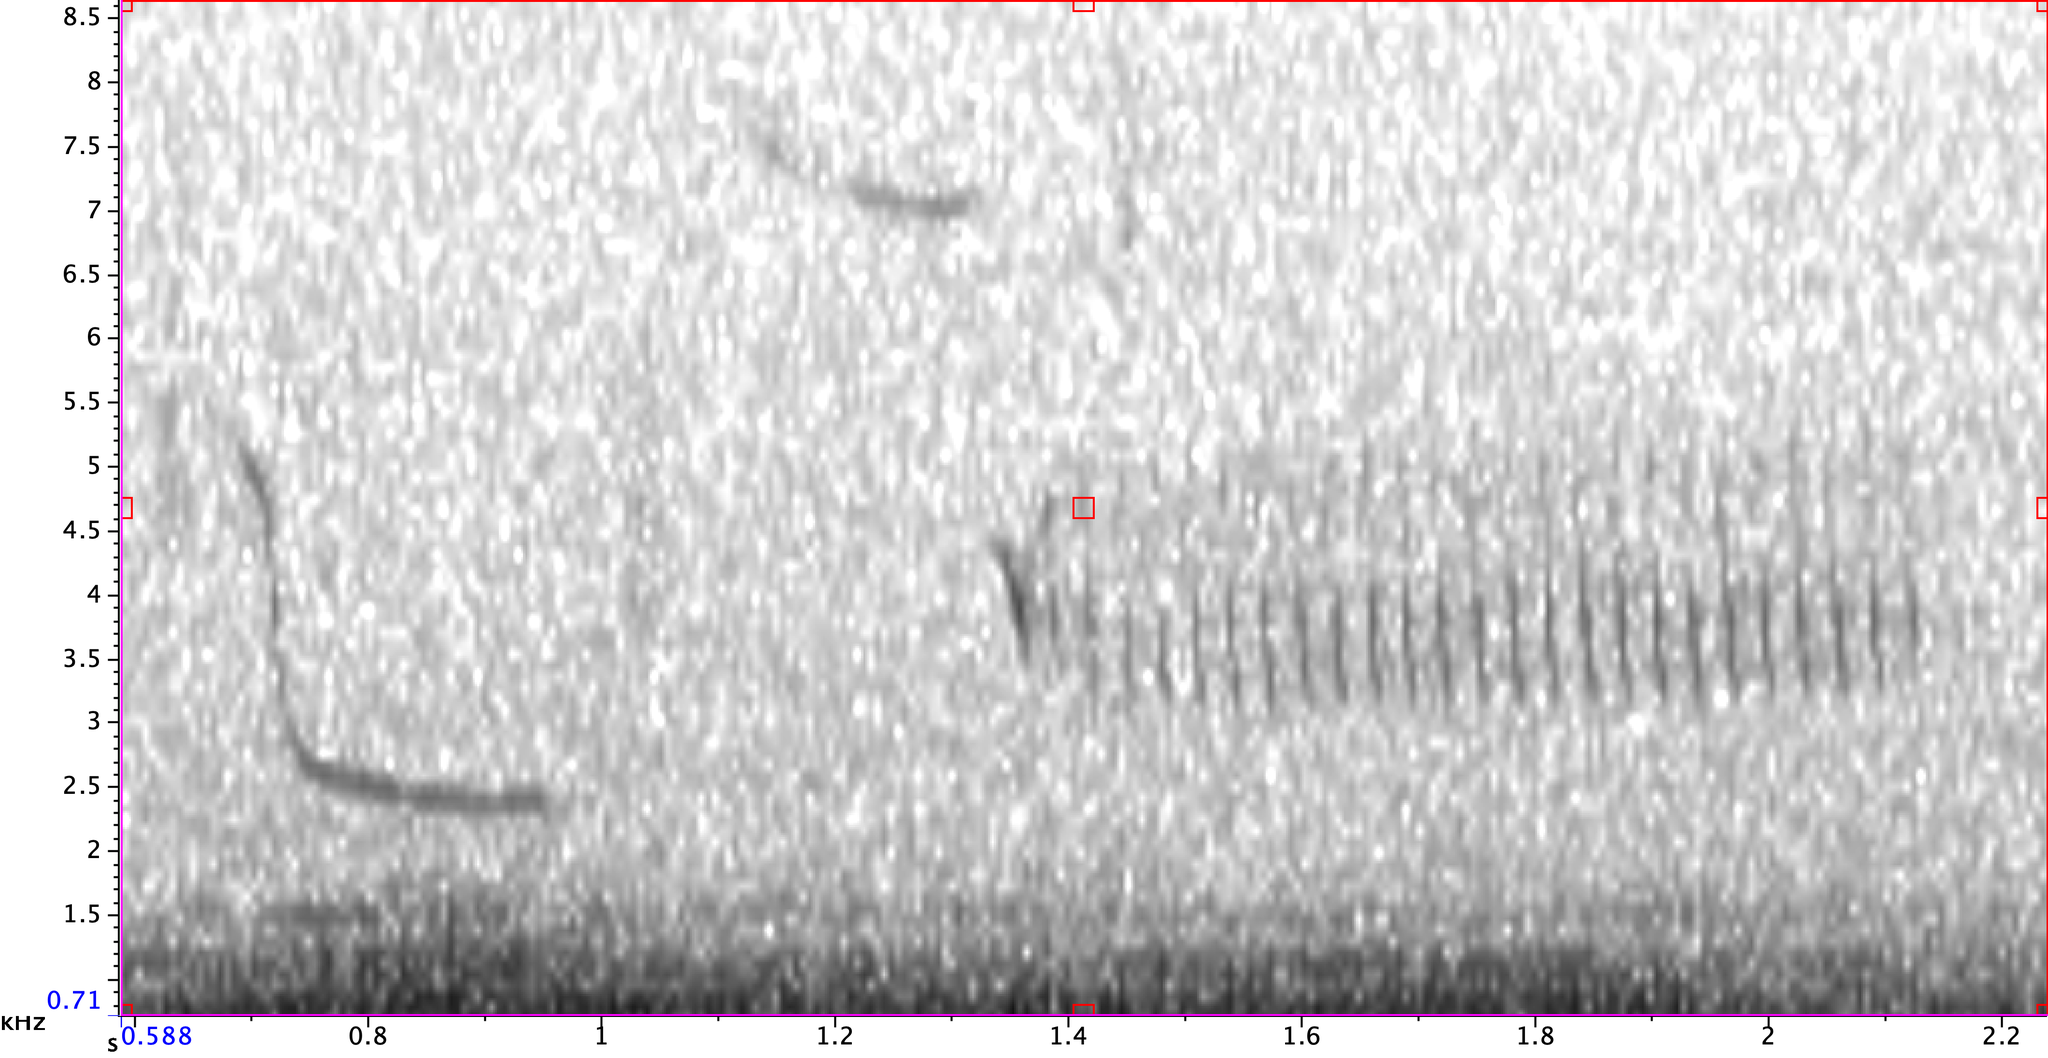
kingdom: Animalia
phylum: Chordata
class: Aves
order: Passeriformes
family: Troglodytidae
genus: Thryomanes
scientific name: Thryomanes bewickii
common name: Bewick's wren
